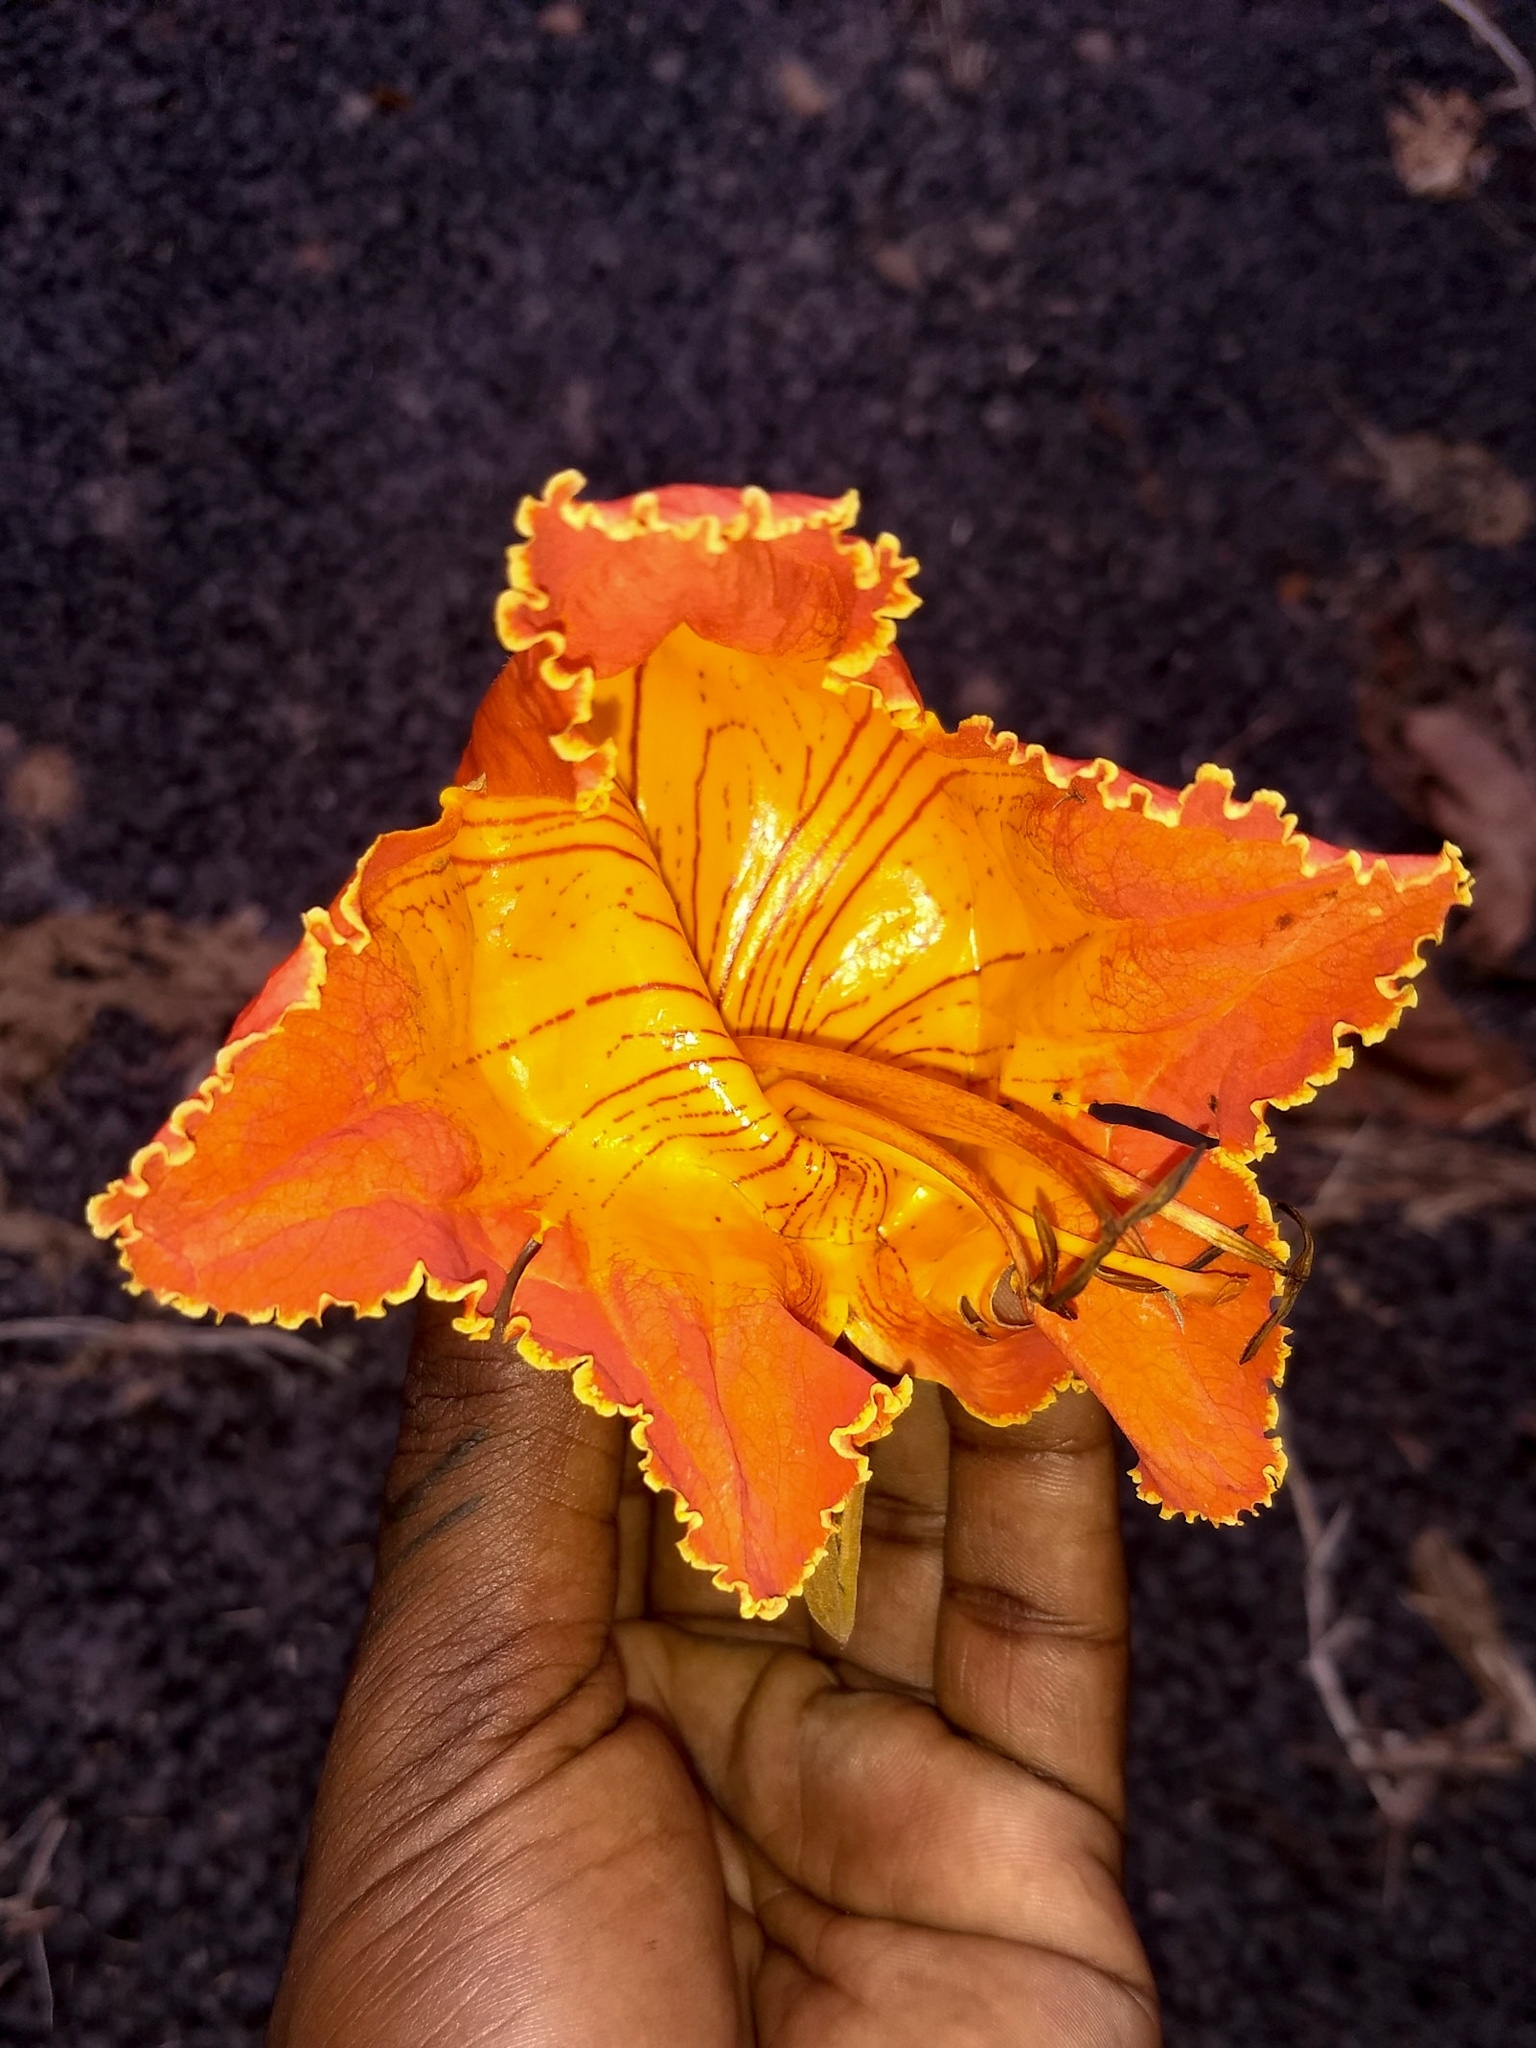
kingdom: Plantae
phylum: Tracheophyta
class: Magnoliopsida
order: Lamiales
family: Bignoniaceae
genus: Spathodea
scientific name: Spathodea campanulata
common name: African tuliptree
